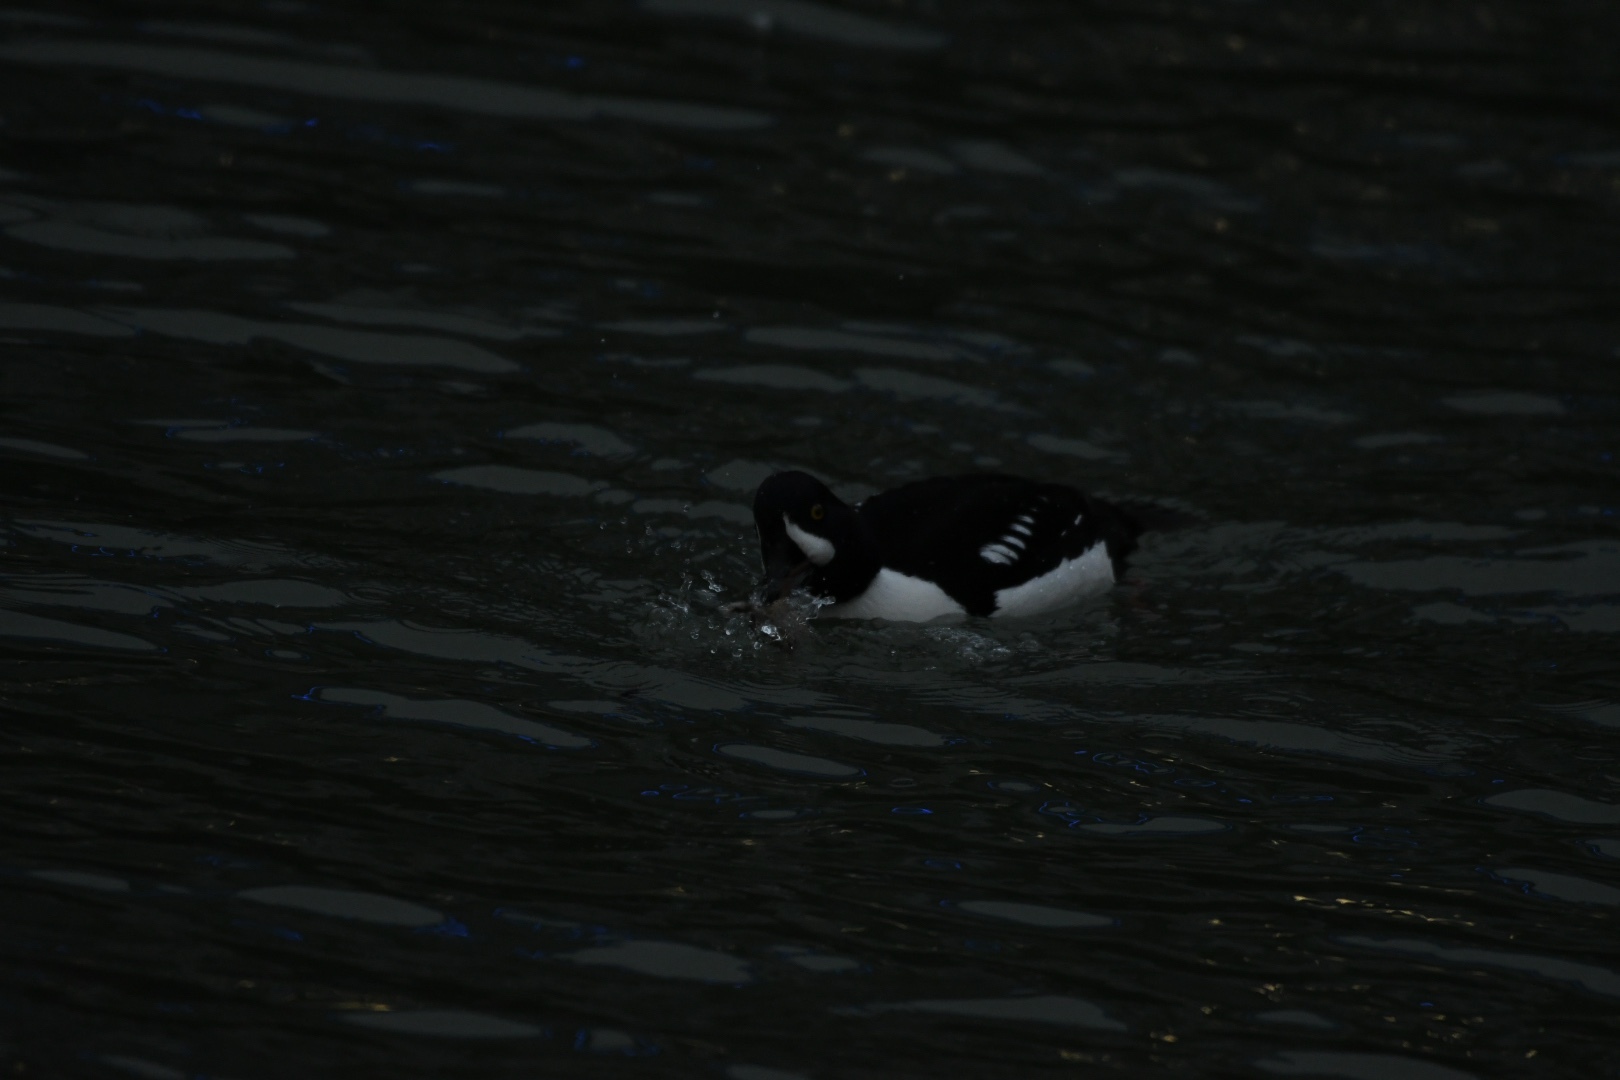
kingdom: Animalia
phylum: Chordata
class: Aves
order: Anseriformes
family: Anatidae
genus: Bucephala
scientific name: Bucephala islandica
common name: Barrow's goldeneye
